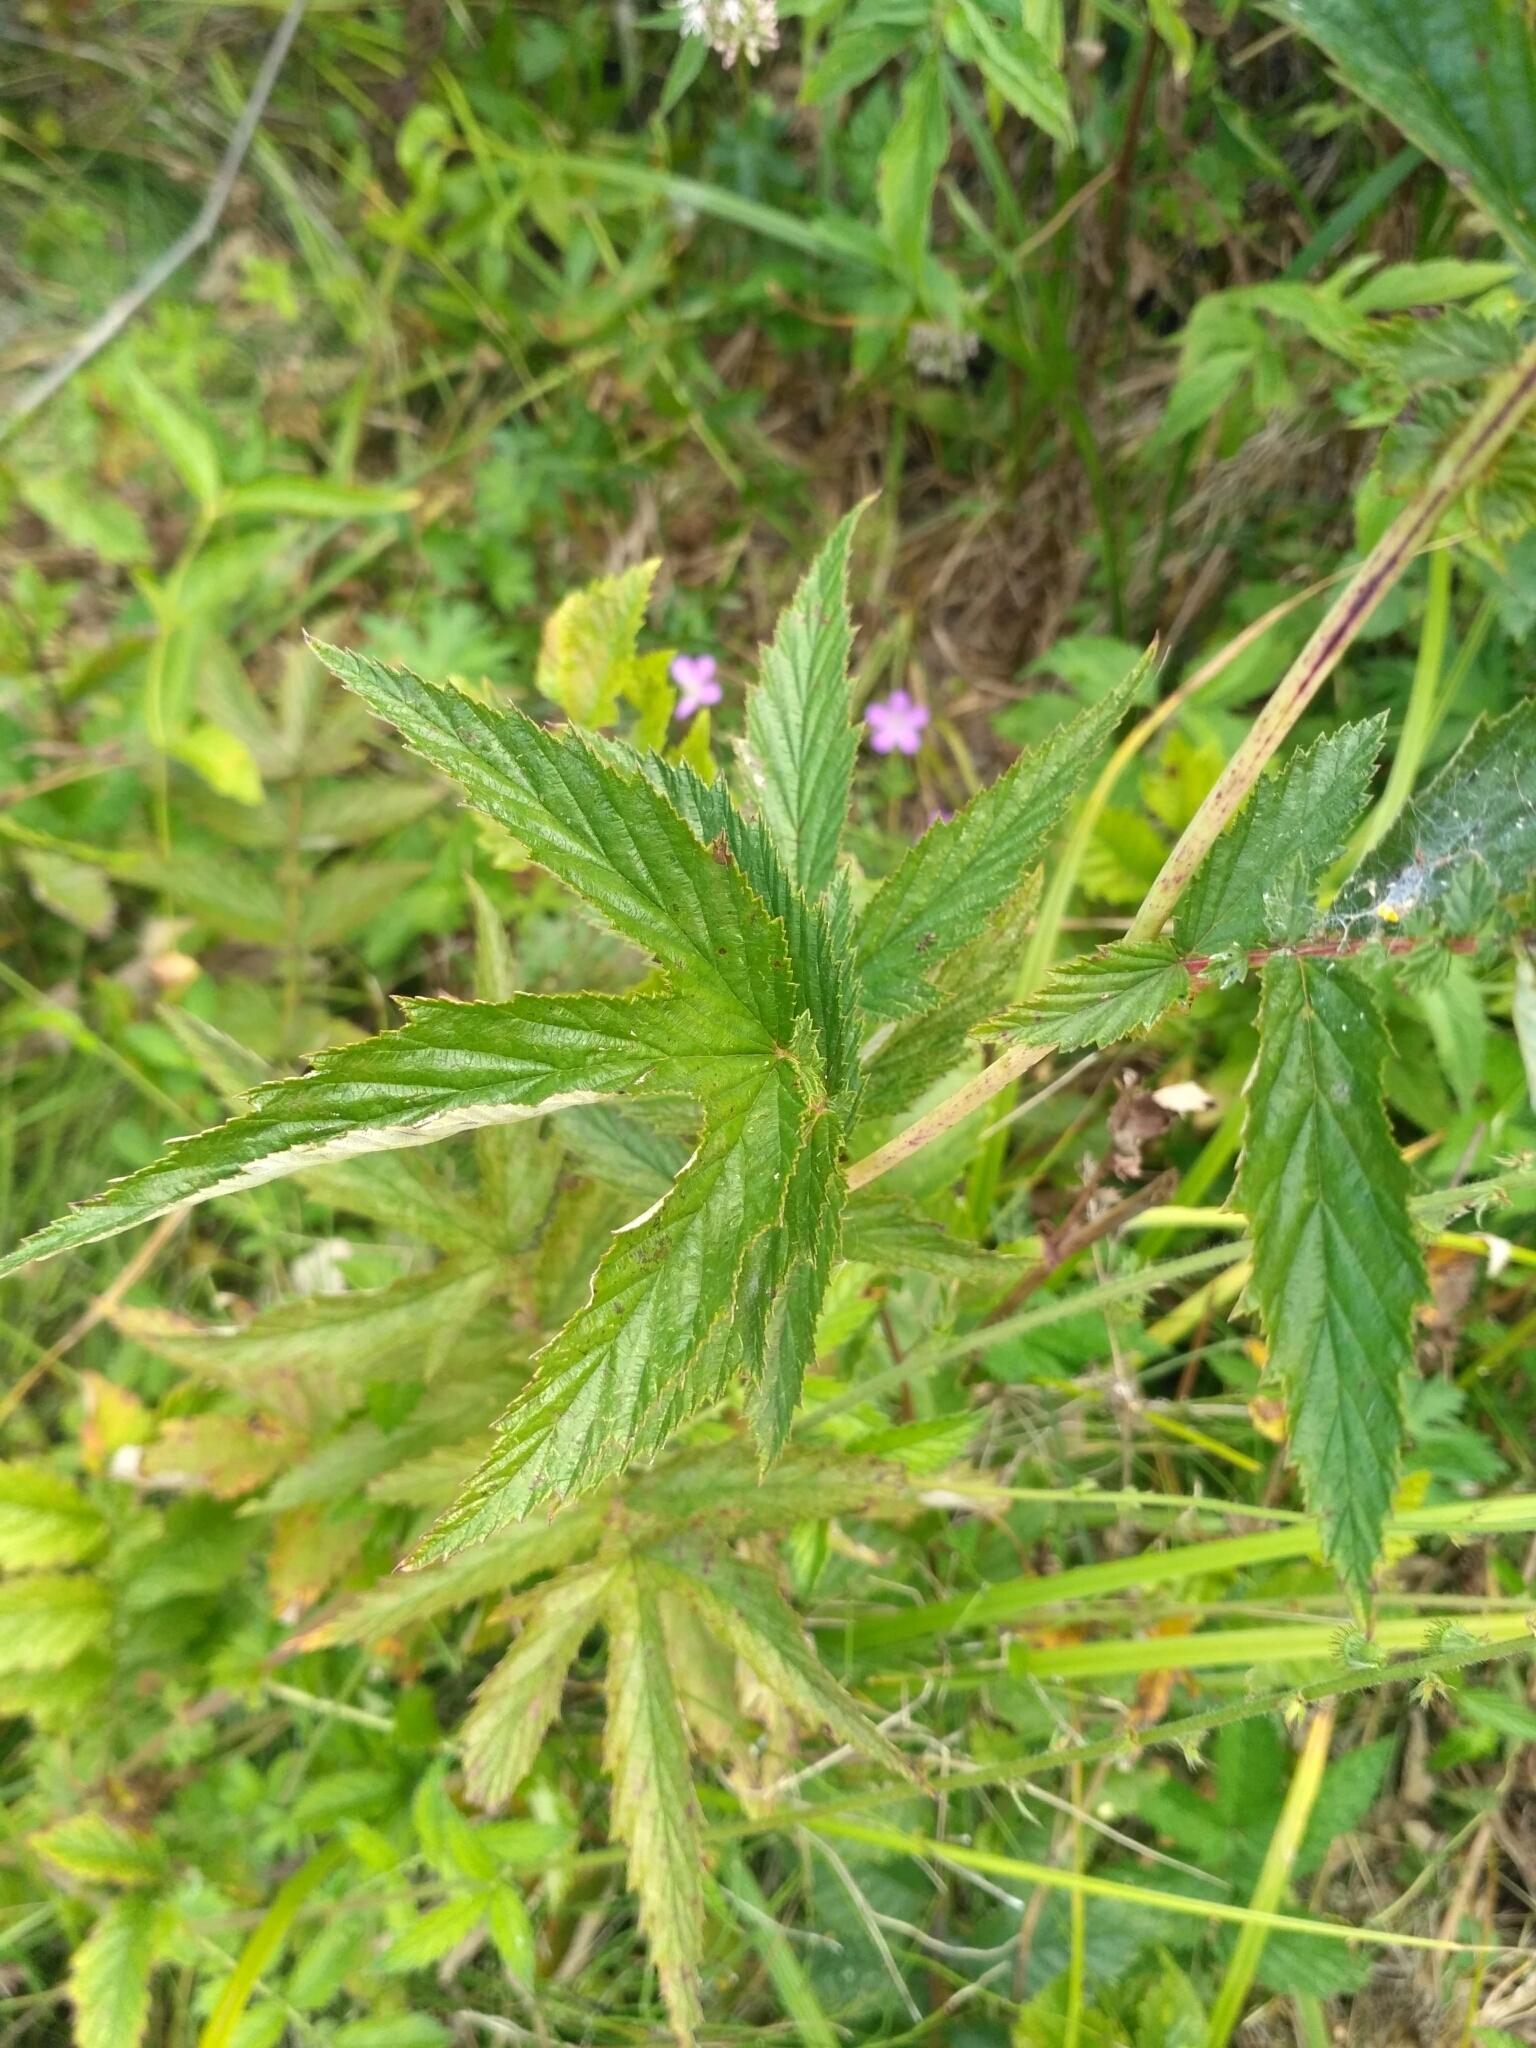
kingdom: Plantae
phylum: Tracheophyta
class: Magnoliopsida
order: Rosales
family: Rosaceae
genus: Filipendula
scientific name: Filipendula ulmaria
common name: Meadowsweet
